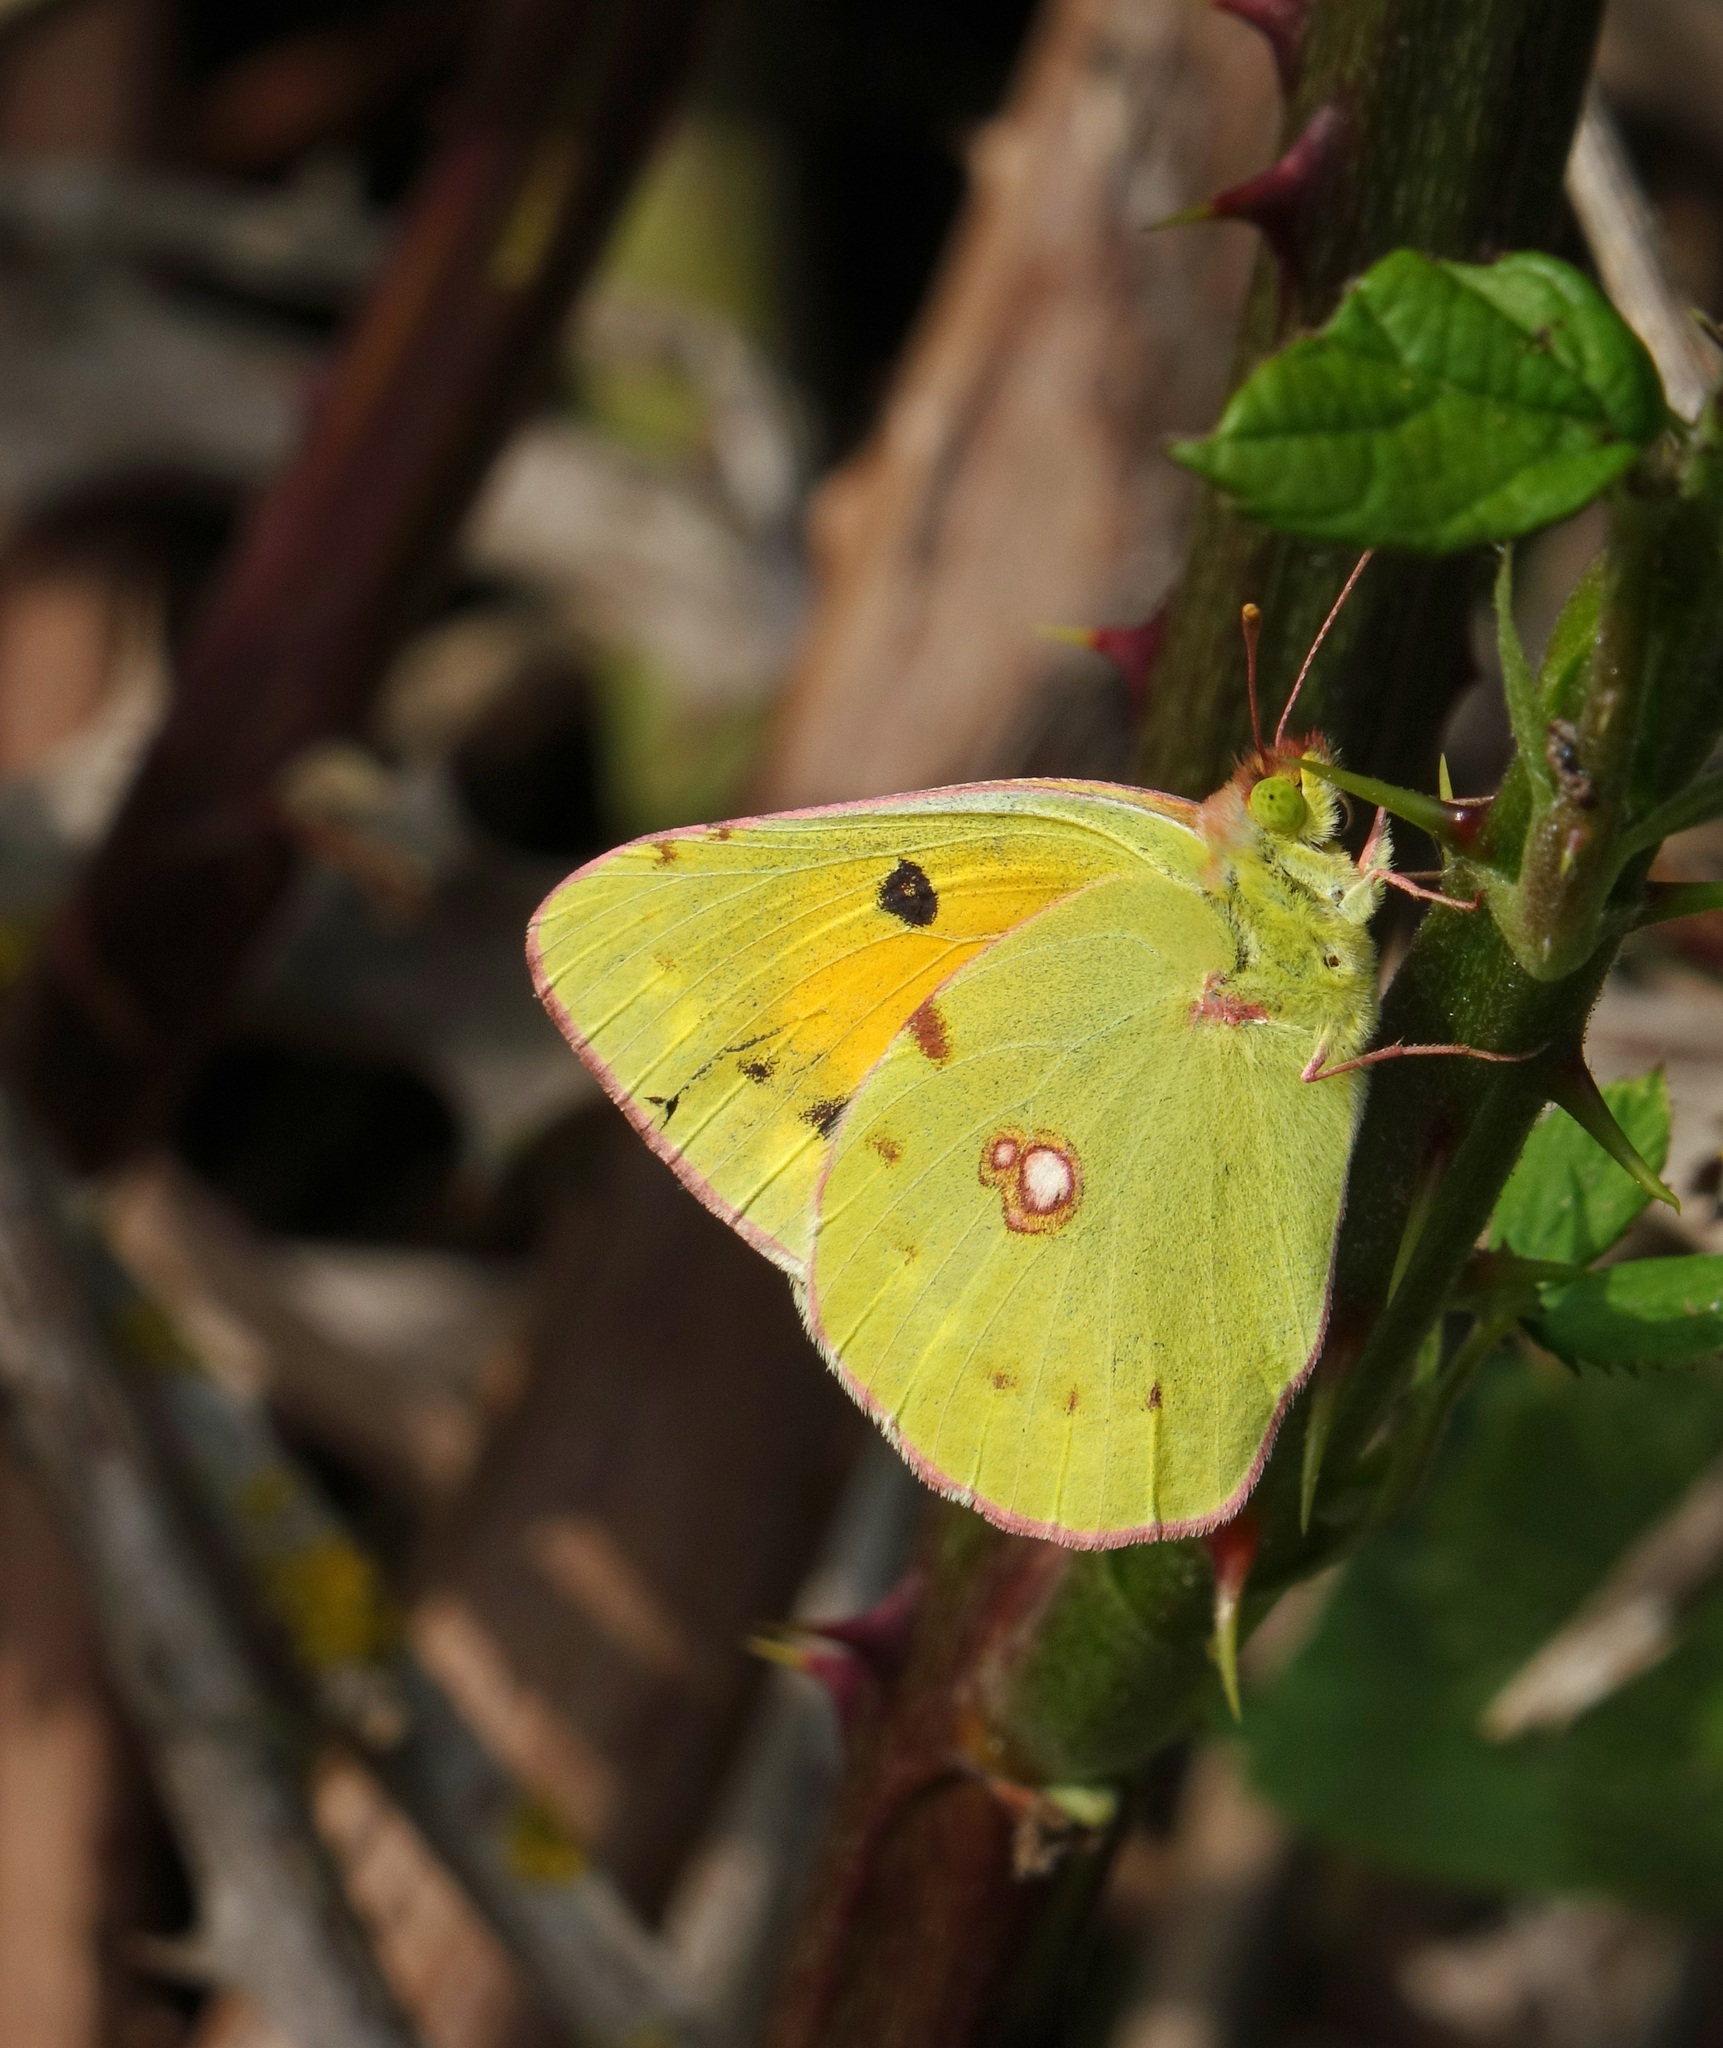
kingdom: Animalia
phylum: Arthropoda
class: Insecta
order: Lepidoptera
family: Pieridae
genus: Colias
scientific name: Colias croceus
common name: Clouded yellow
